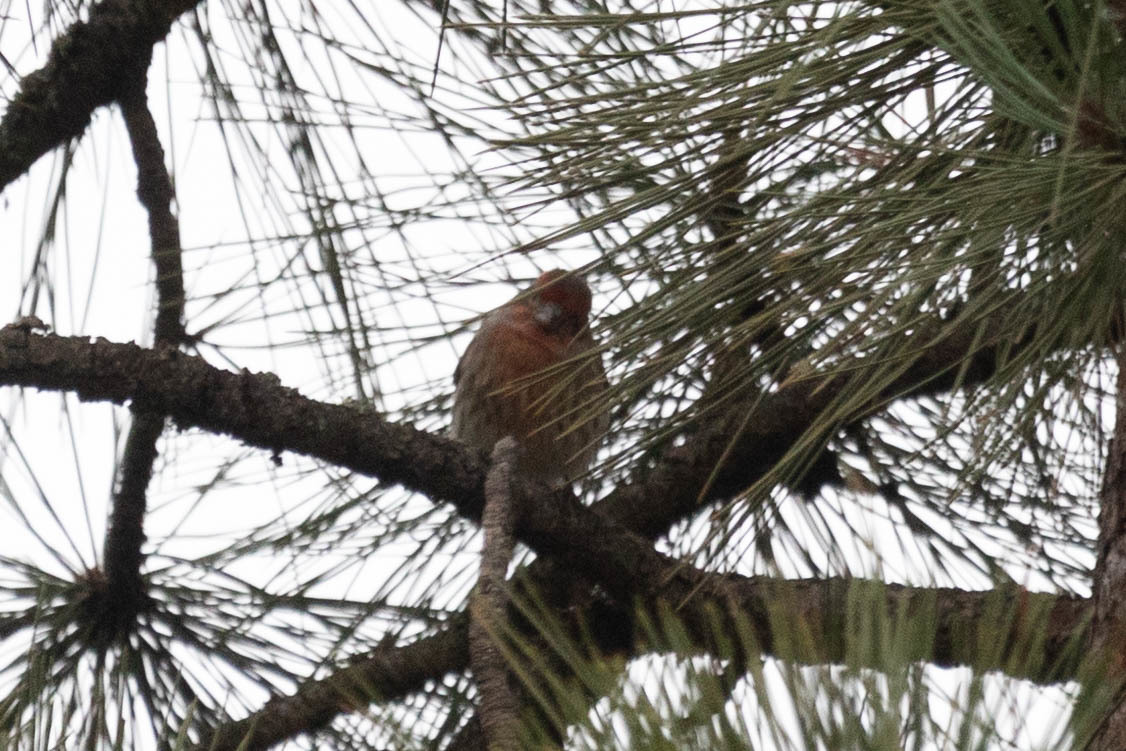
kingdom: Animalia
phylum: Chordata
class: Aves
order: Passeriformes
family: Fringillidae
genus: Haemorhous
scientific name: Haemorhous mexicanus
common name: House finch
